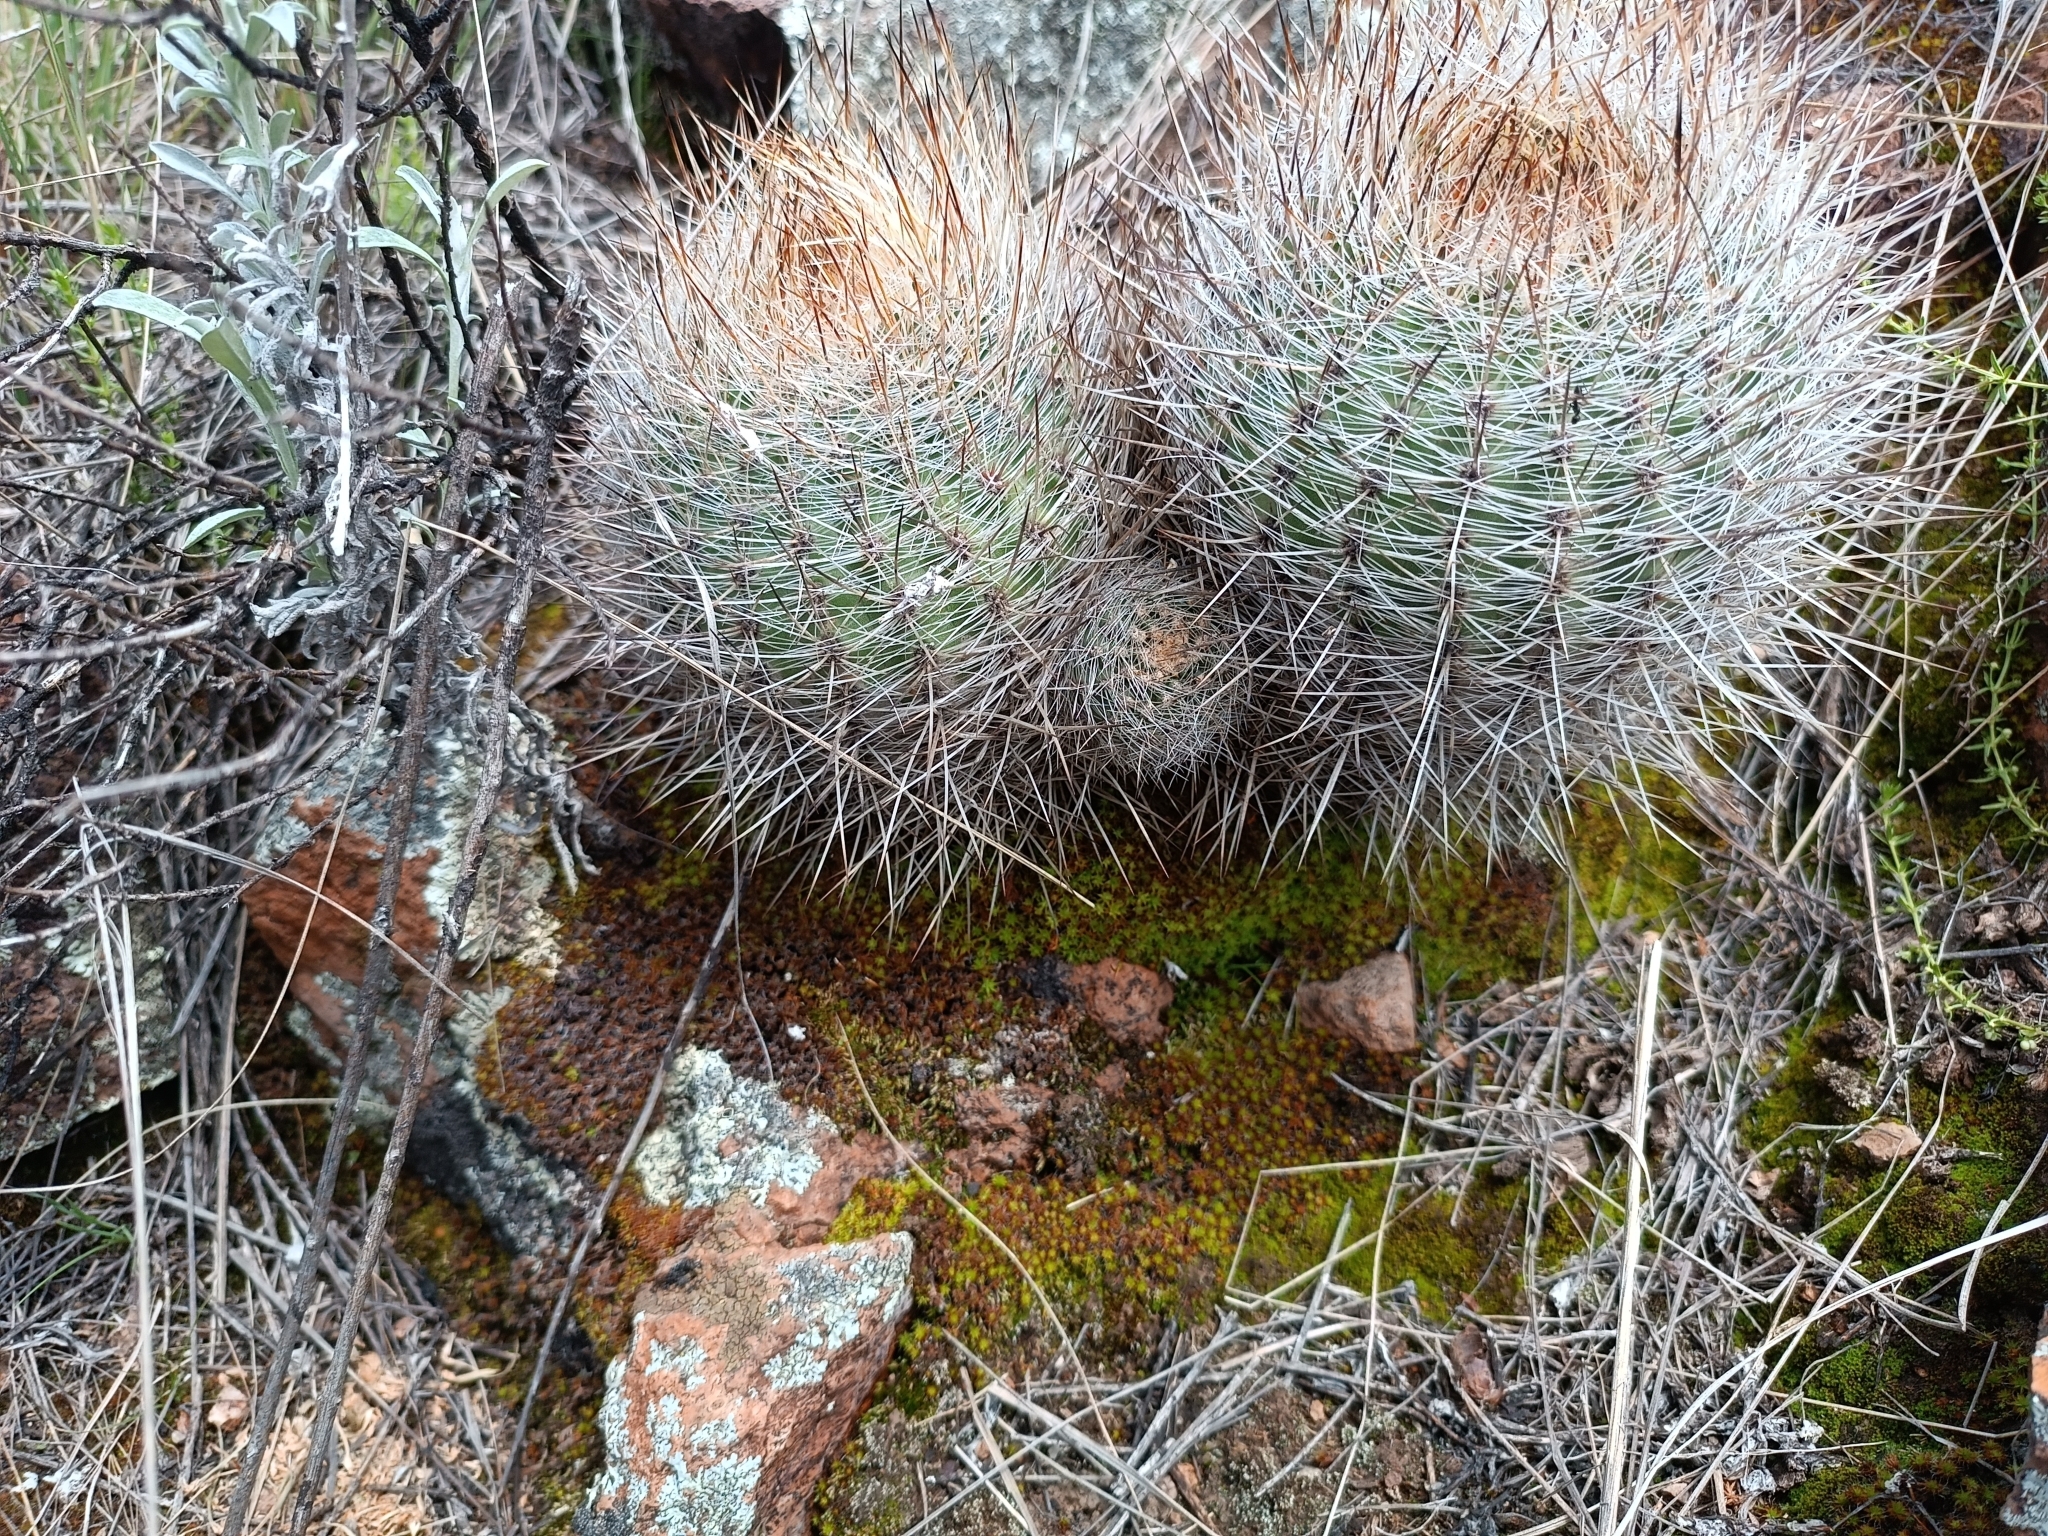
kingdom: Plantae
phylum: Tracheophyta
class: Magnoliopsida
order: Caryophyllales
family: Cactaceae
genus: Matucana
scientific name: Matucana haynii
